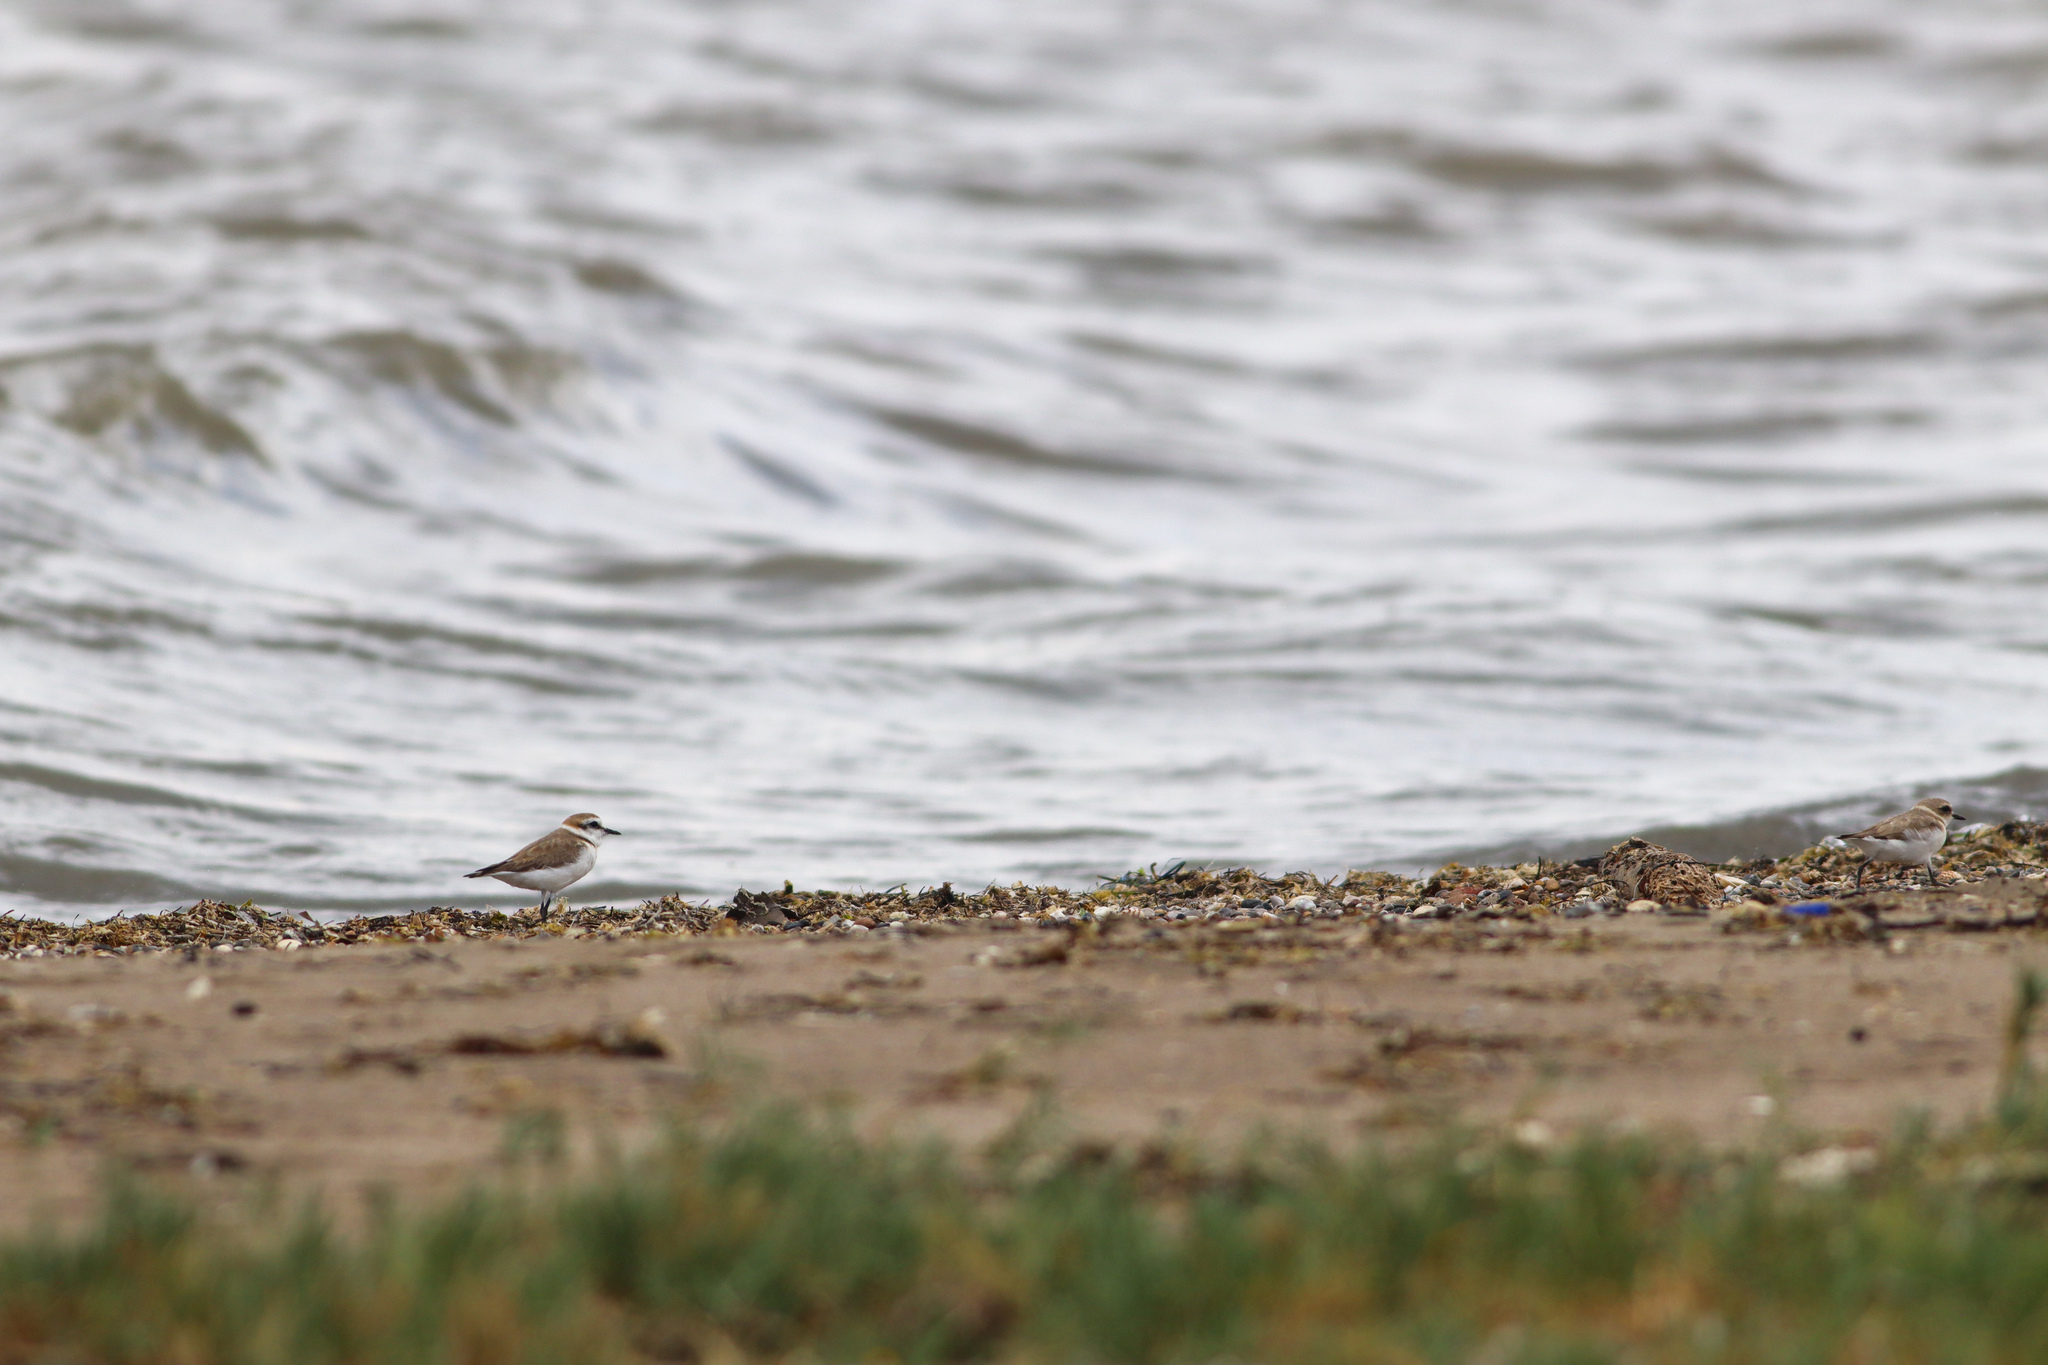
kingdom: Animalia
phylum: Chordata
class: Aves
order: Charadriiformes
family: Charadriidae
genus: Charadrius
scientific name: Charadrius alexandrinus
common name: Kentish plover
